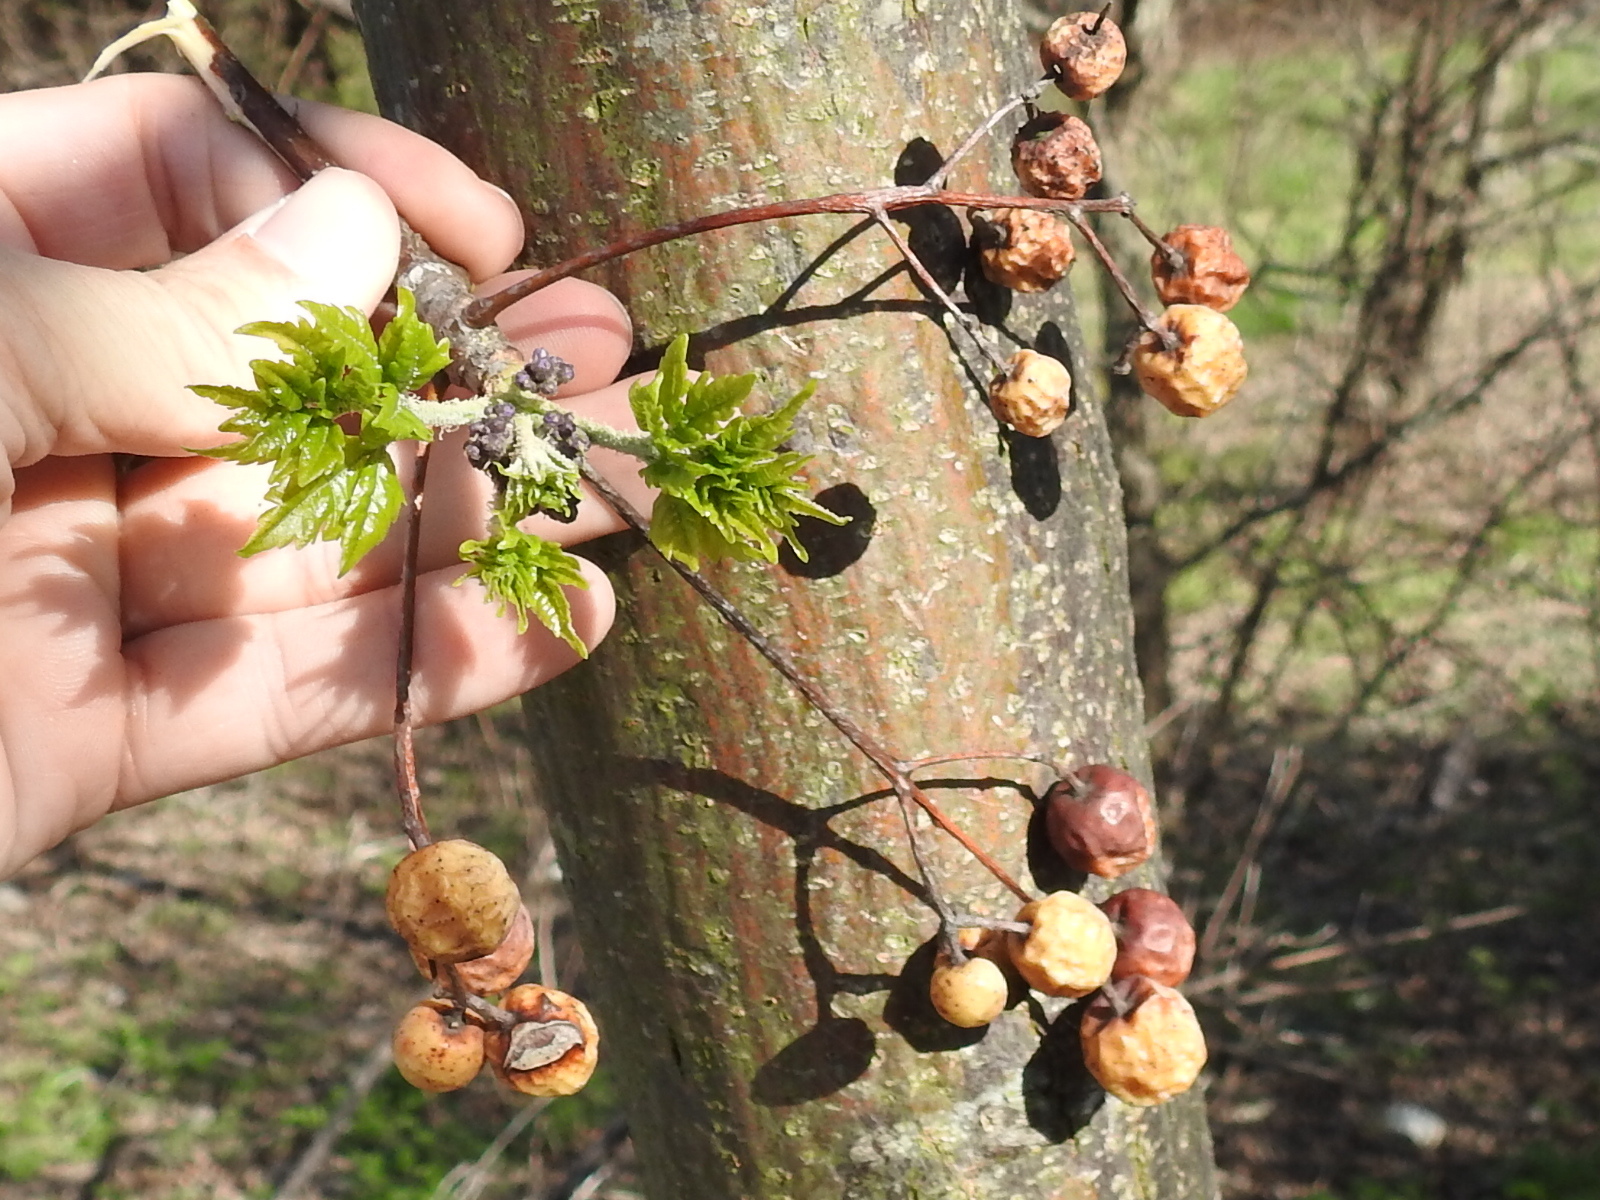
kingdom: Plantae
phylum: Tracheophyta
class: Magnoliopsida
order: Sapindales
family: Meliaceae
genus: Melia
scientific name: Melia azedarach
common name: Chinaberrytree
